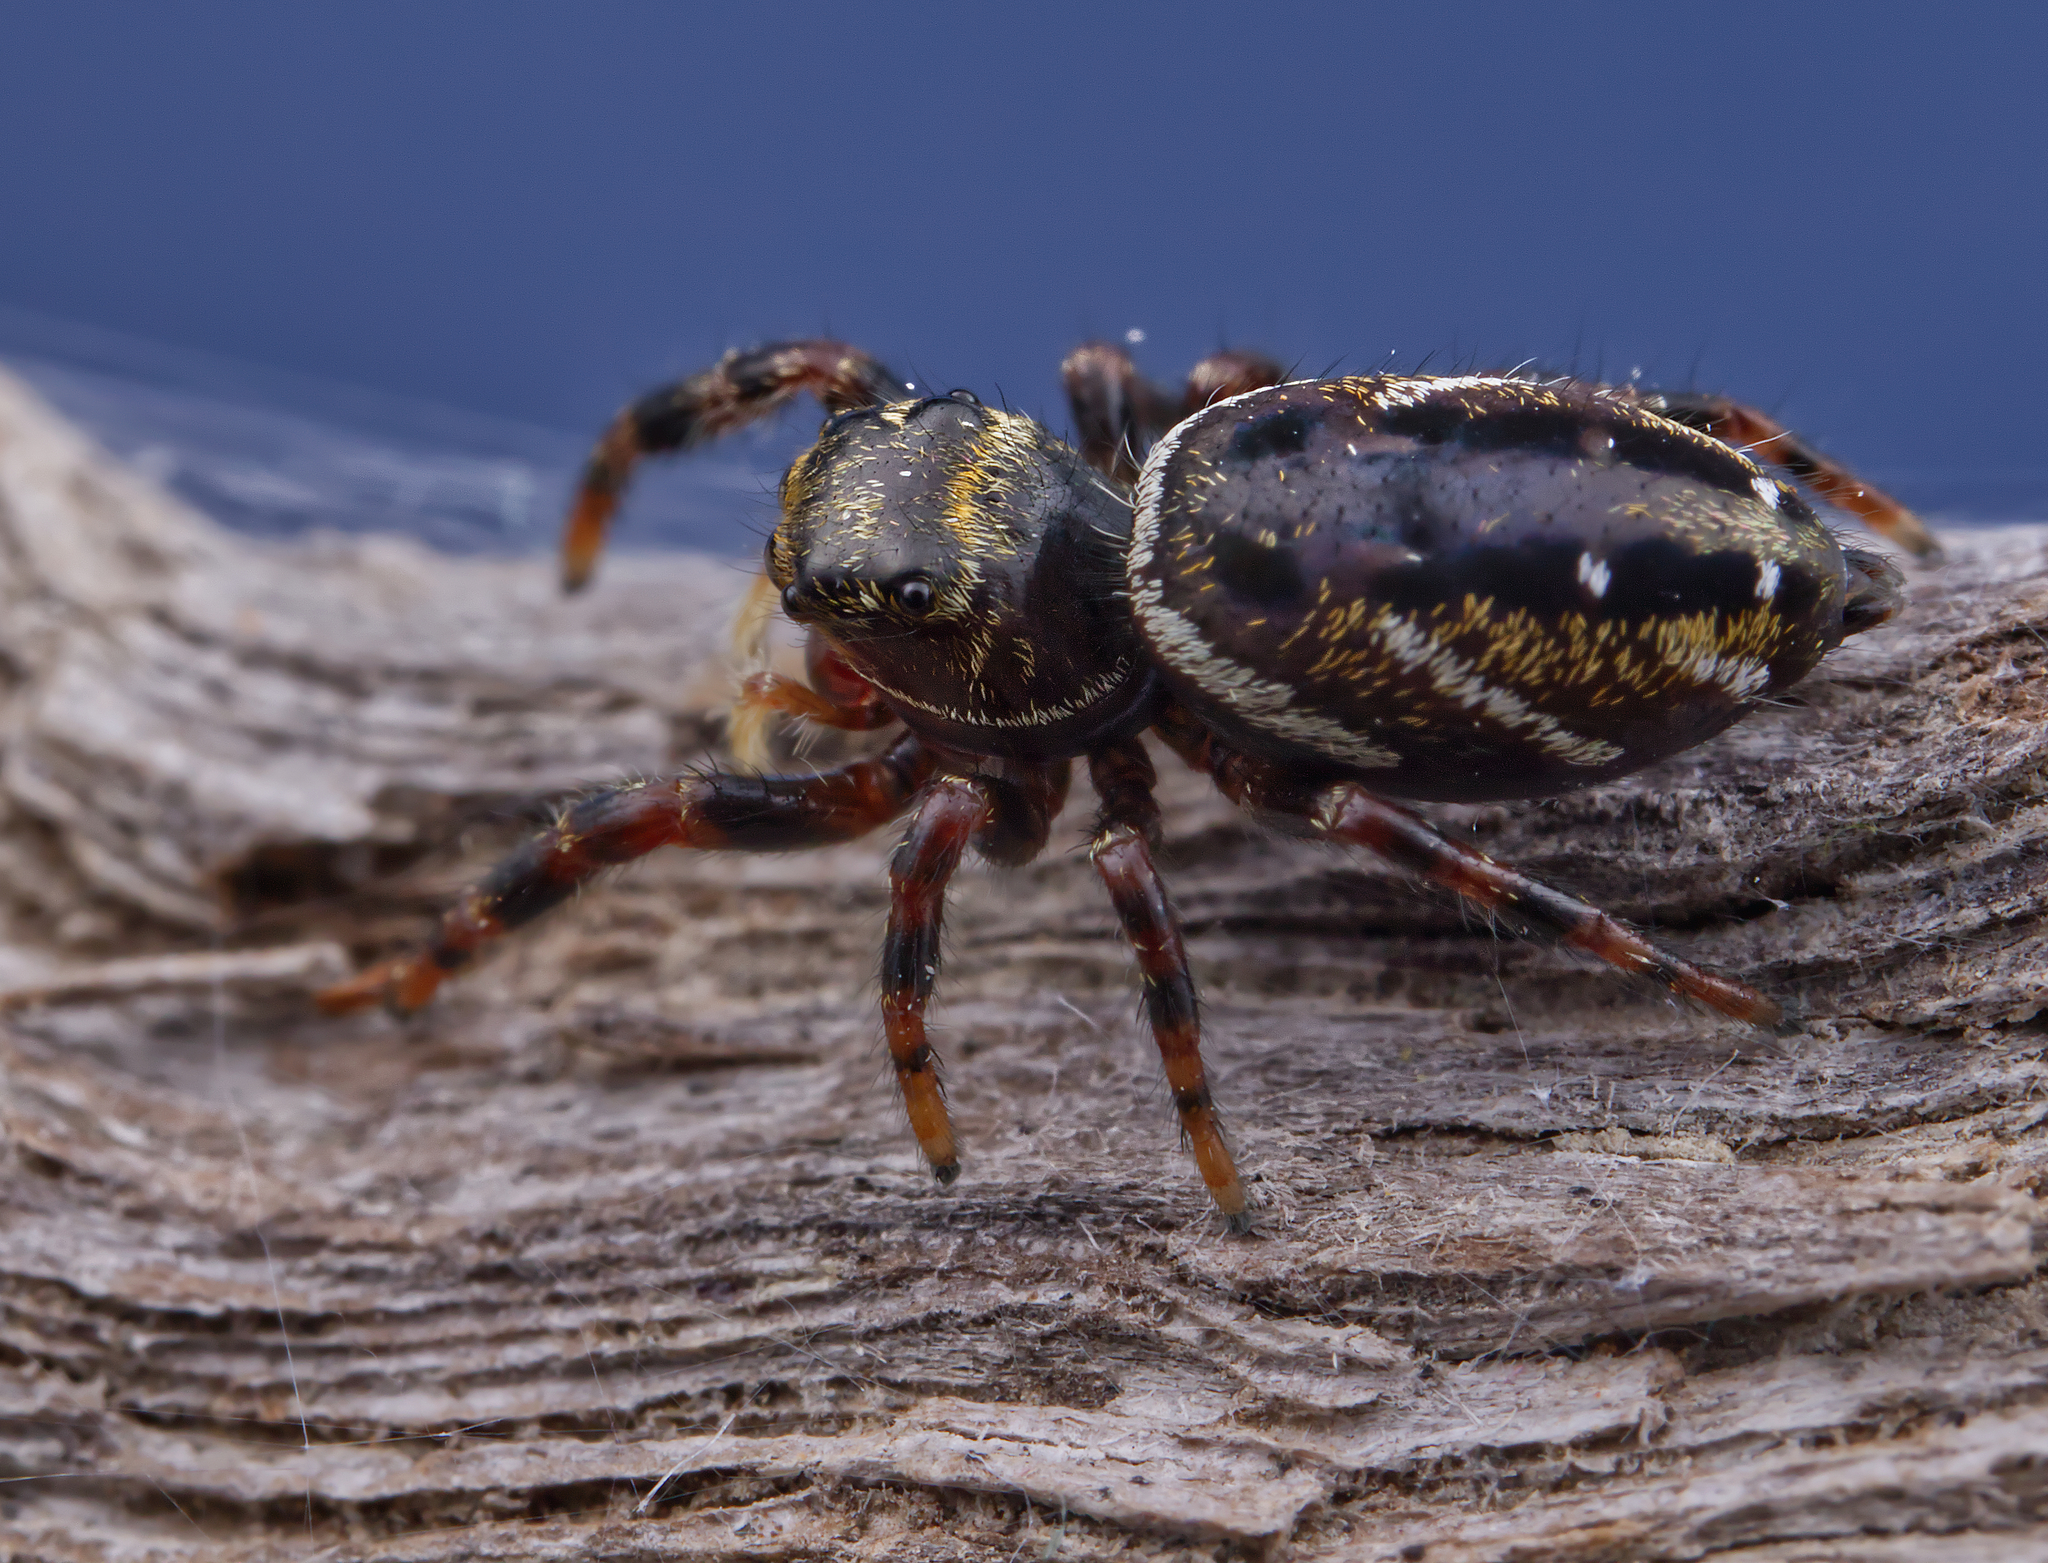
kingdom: Animalia
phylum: Arthropoda
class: Arachnida
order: Araneae
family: Salticidae
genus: Phidippus
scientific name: Phidippus clarus
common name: Brilliant jumping spider
